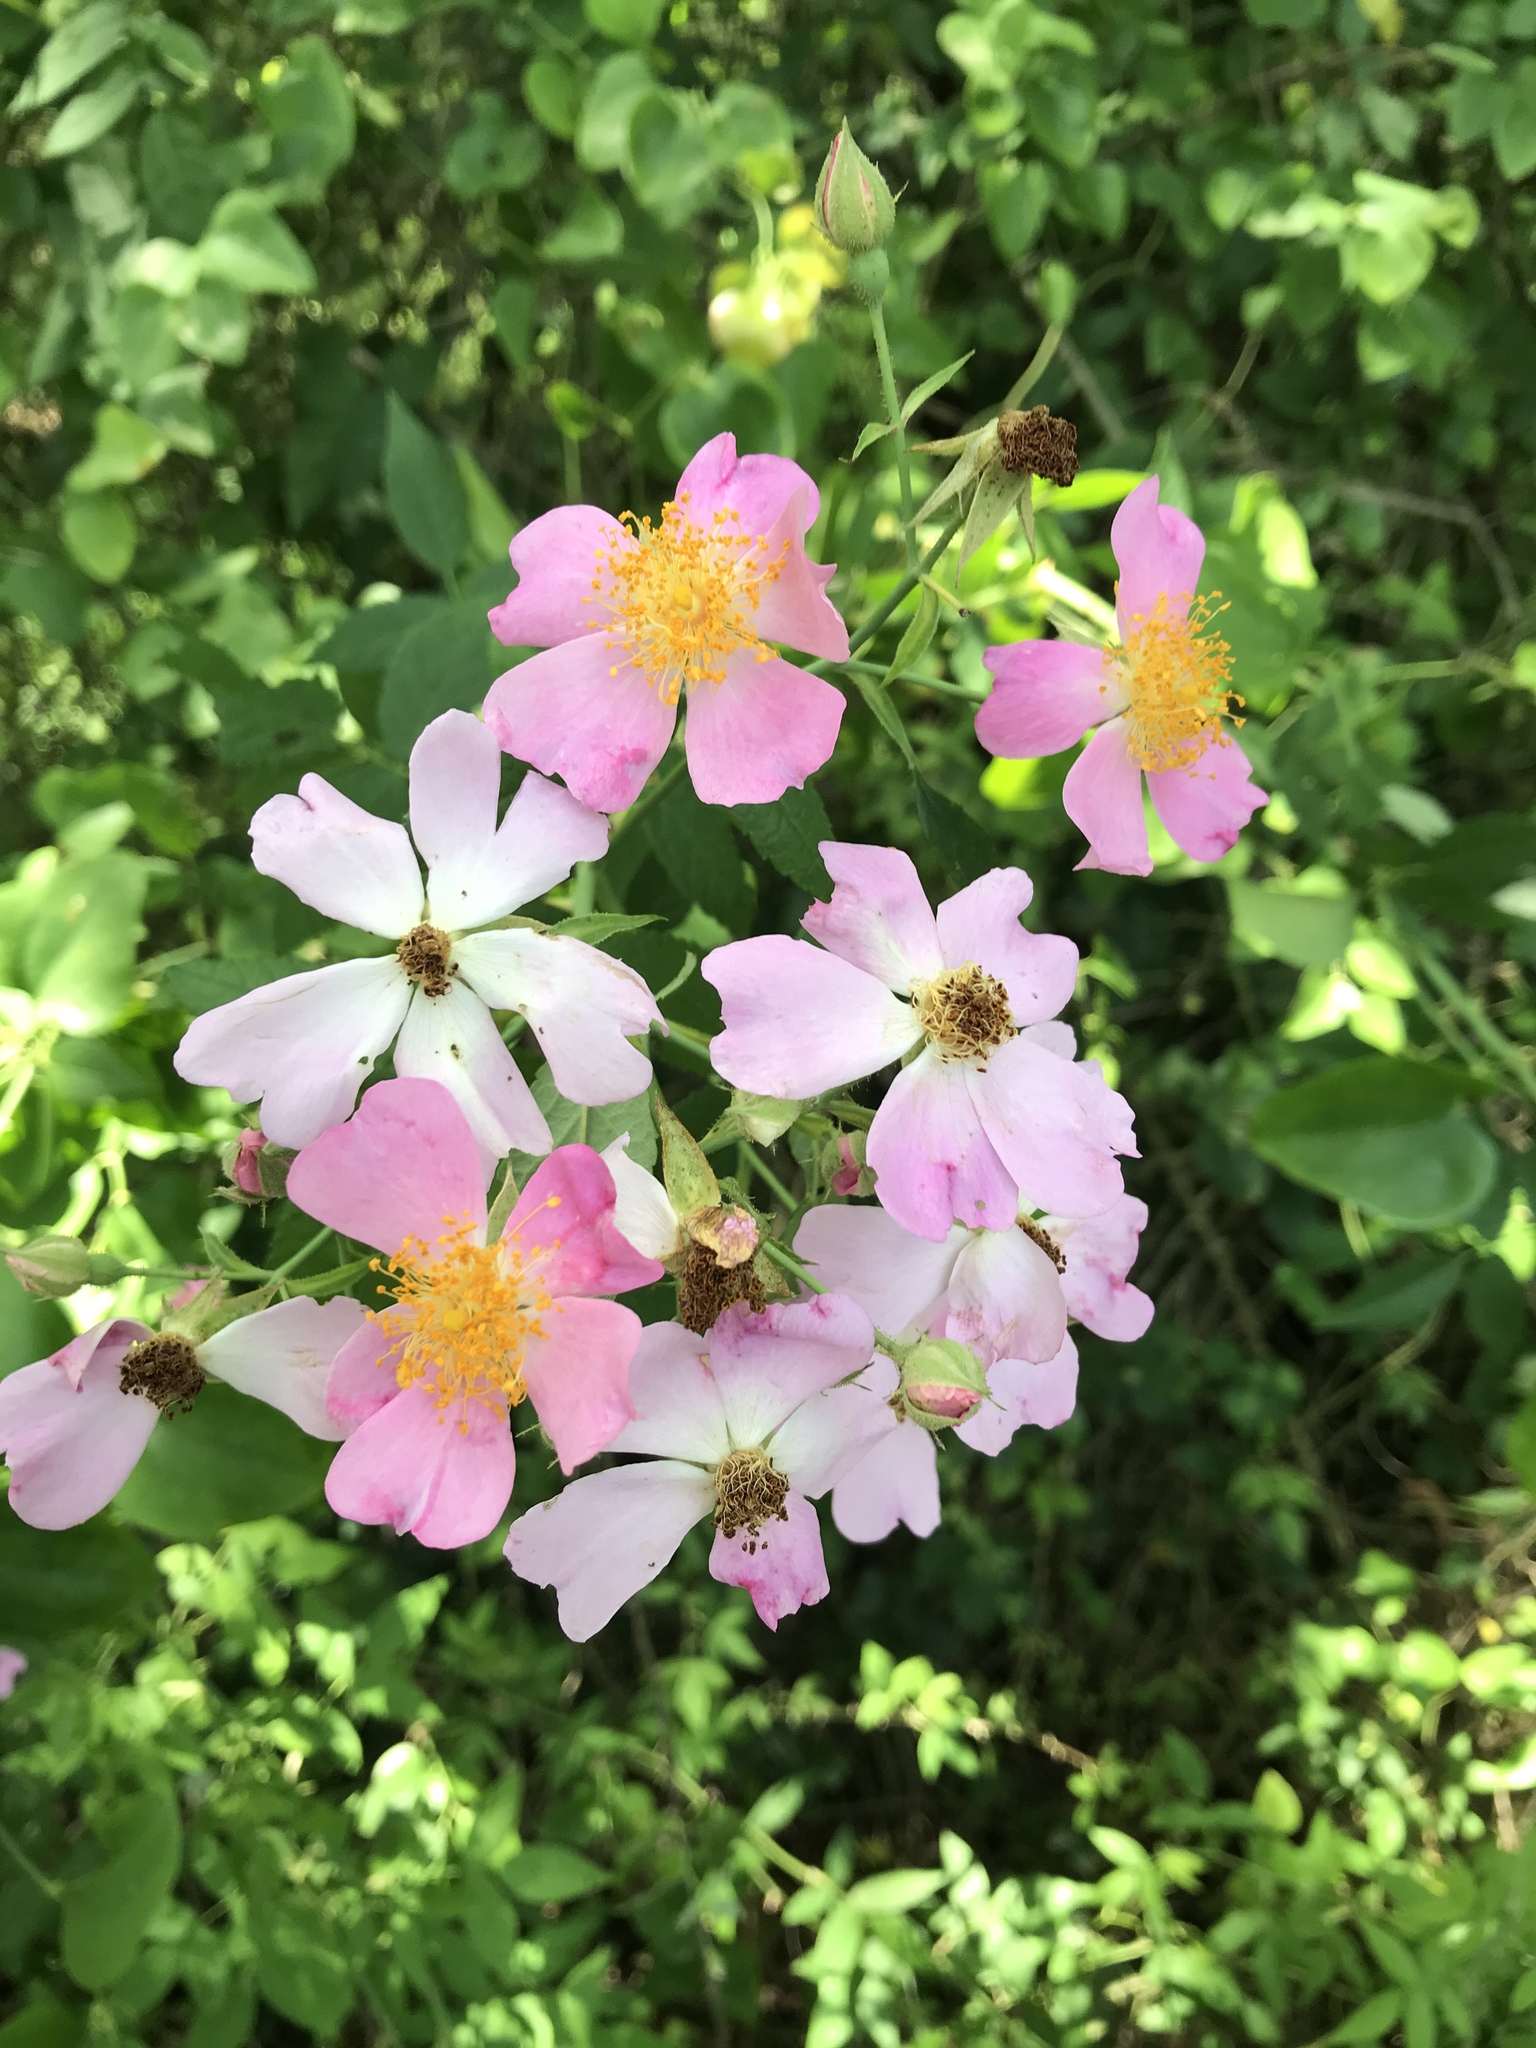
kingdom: Plantae
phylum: Tracheophyta
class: Magnoliopsida
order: Rosales
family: Rosaceae
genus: Rosa
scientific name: Rosa setigera
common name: Prairie rose
